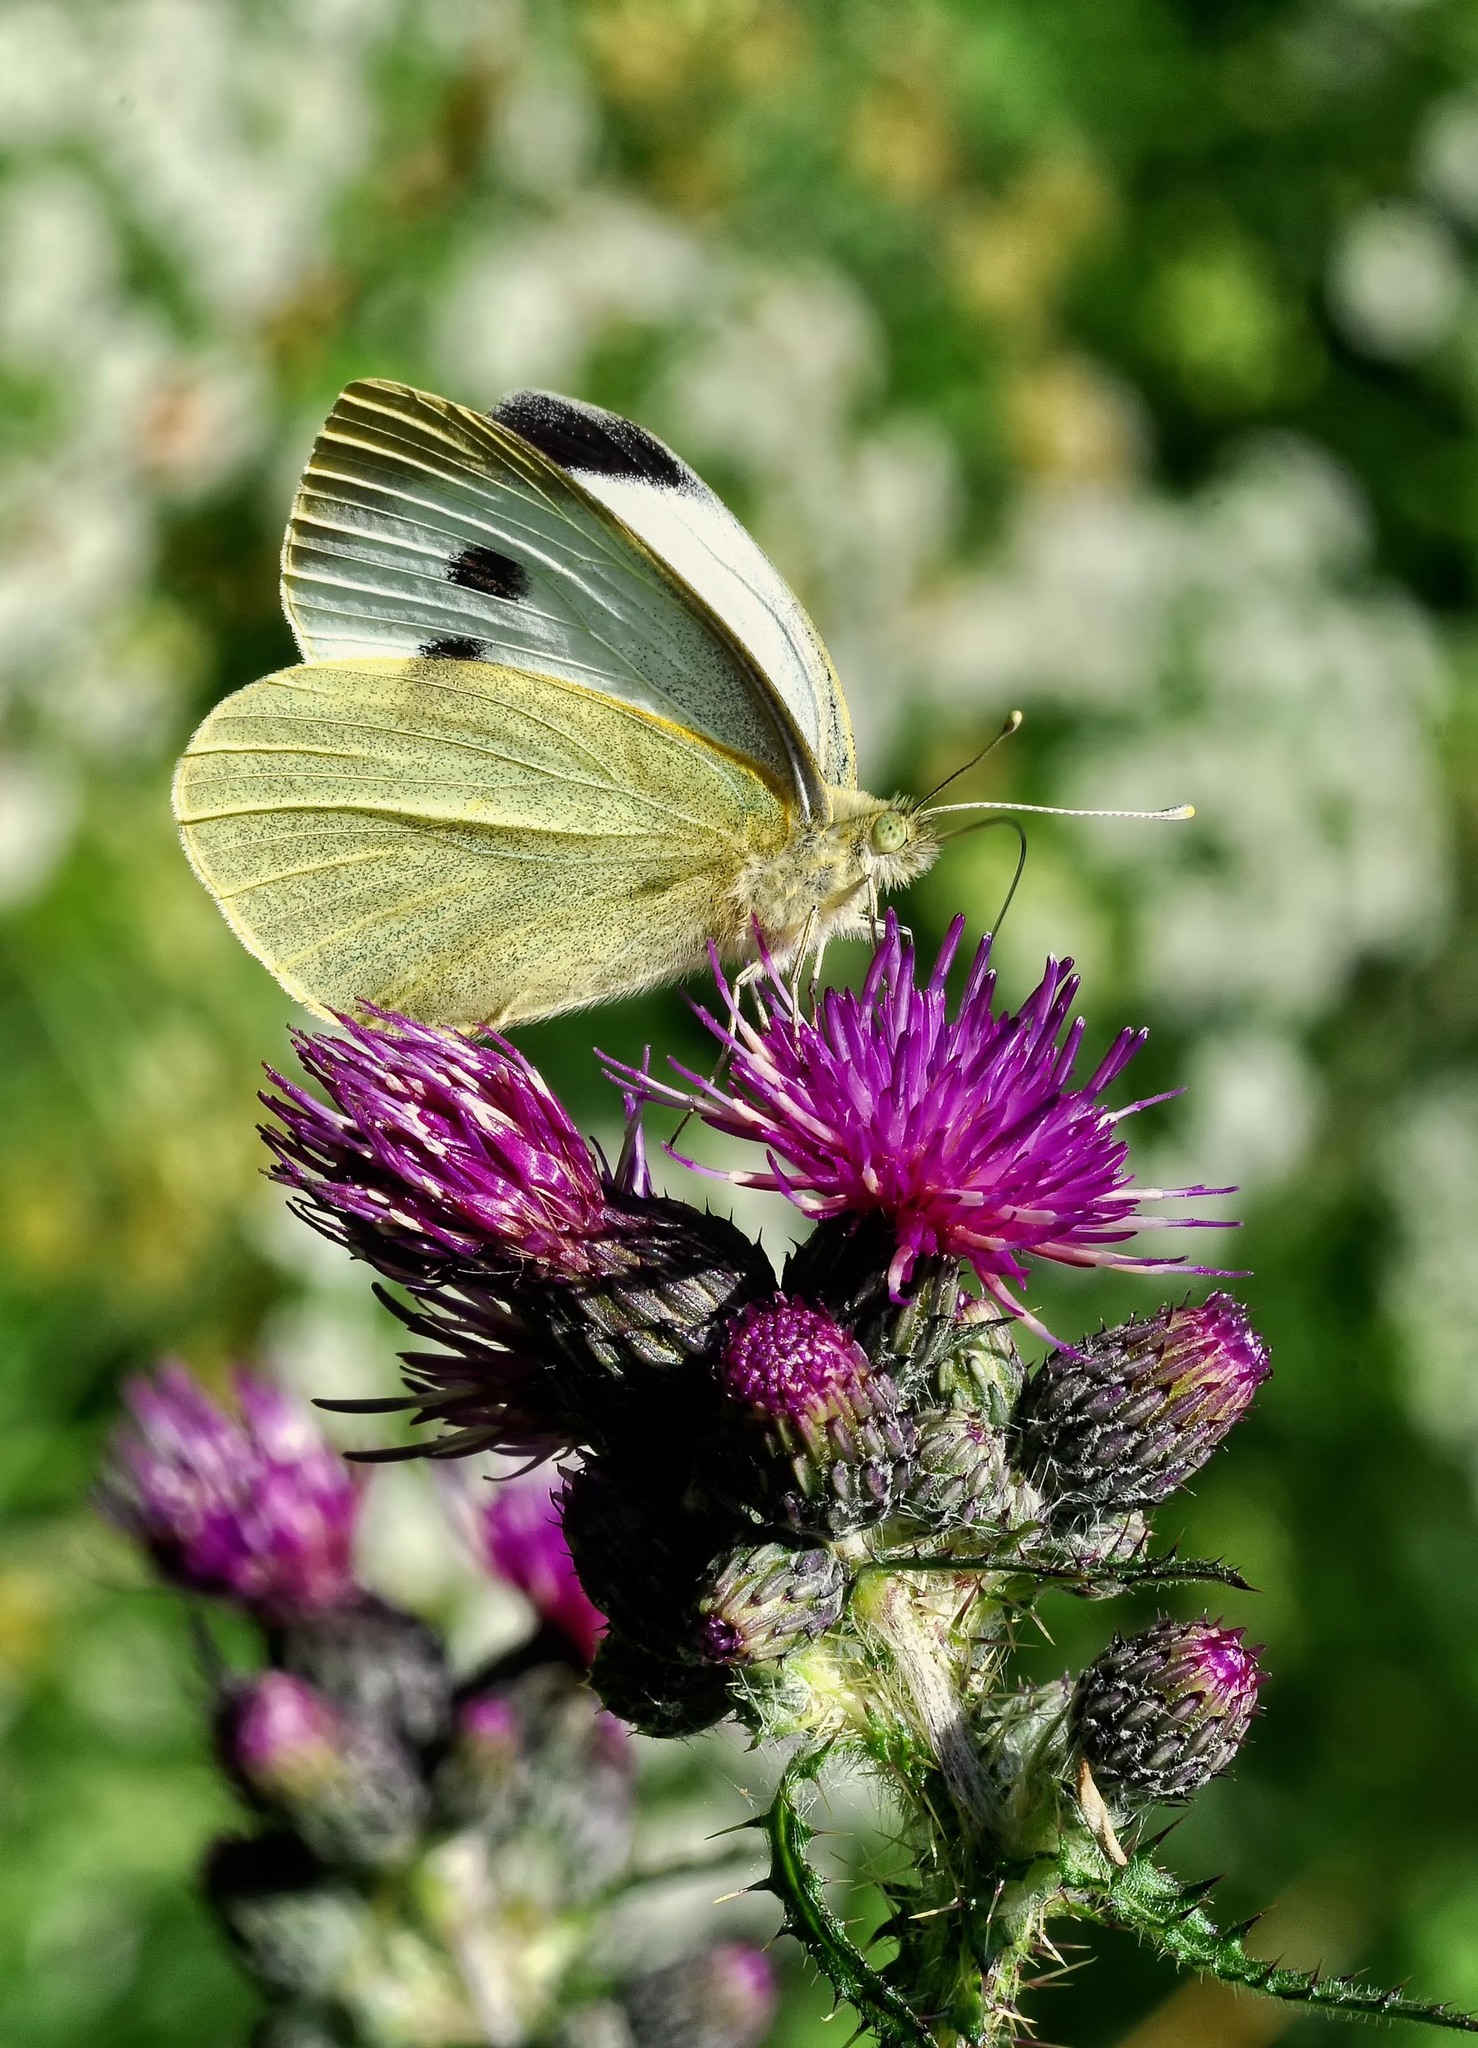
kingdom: Animalia
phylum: Arthropoda
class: Insecta
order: Lepidoptera
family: Pieridae
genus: Pieris
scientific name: Pieris brassicae
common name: Large white
